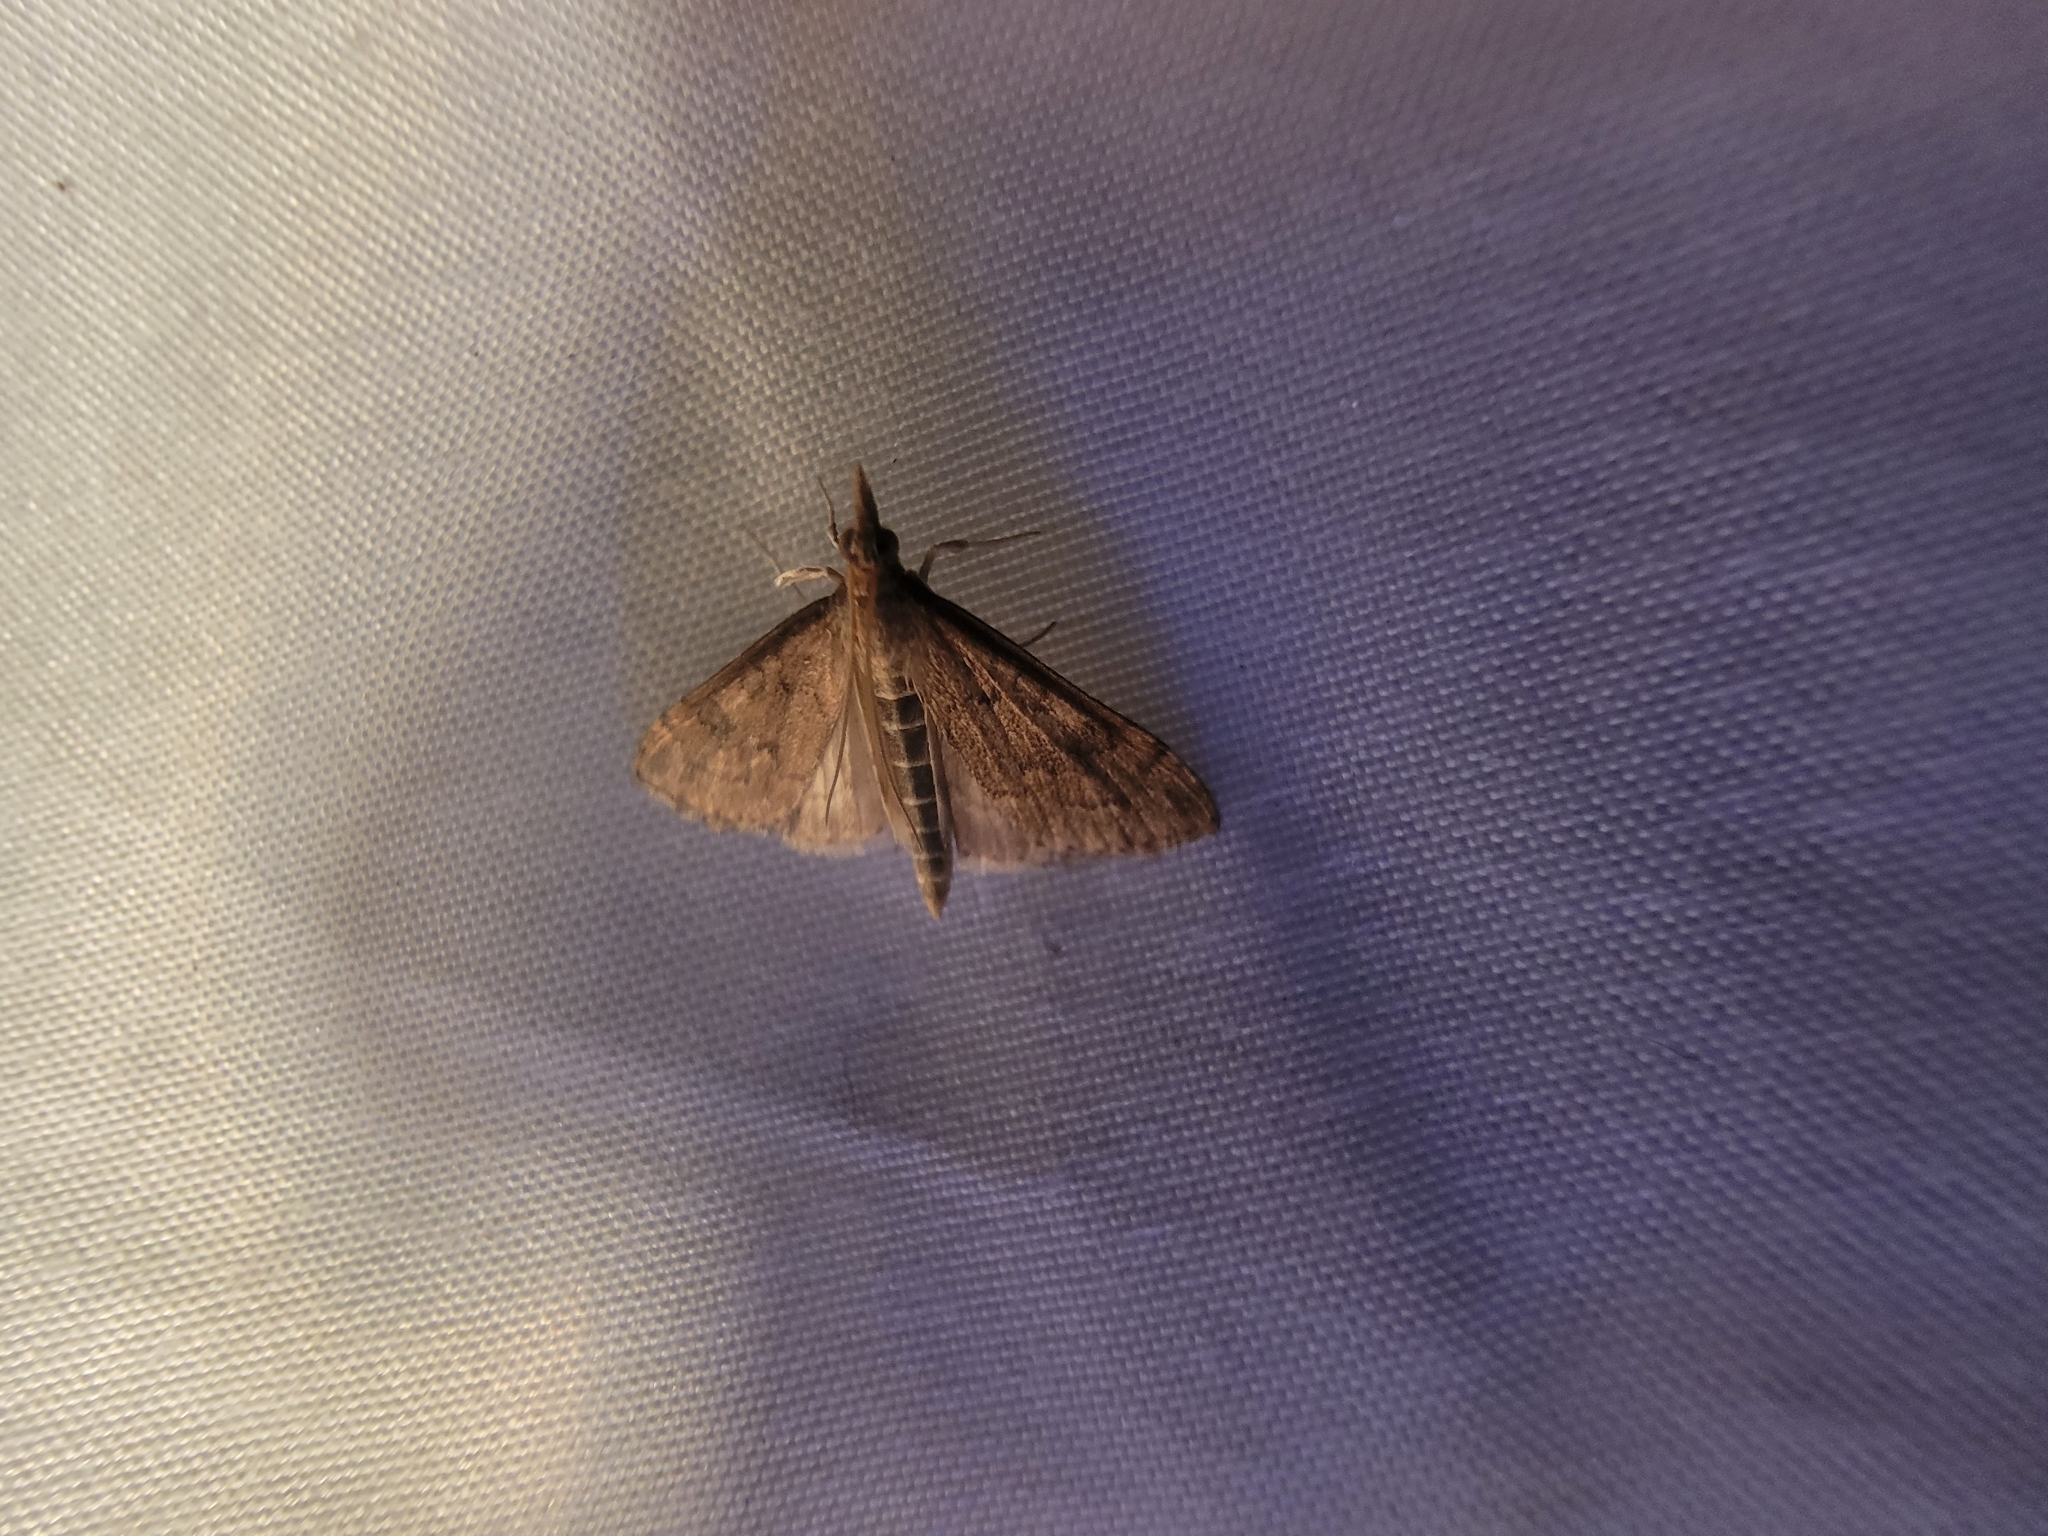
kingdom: Animalia
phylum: Arthropoda
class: Insecta
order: Lepidoptera
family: Crambidae
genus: Udea
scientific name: Udea rubigalis
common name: Celery leaftier moth
